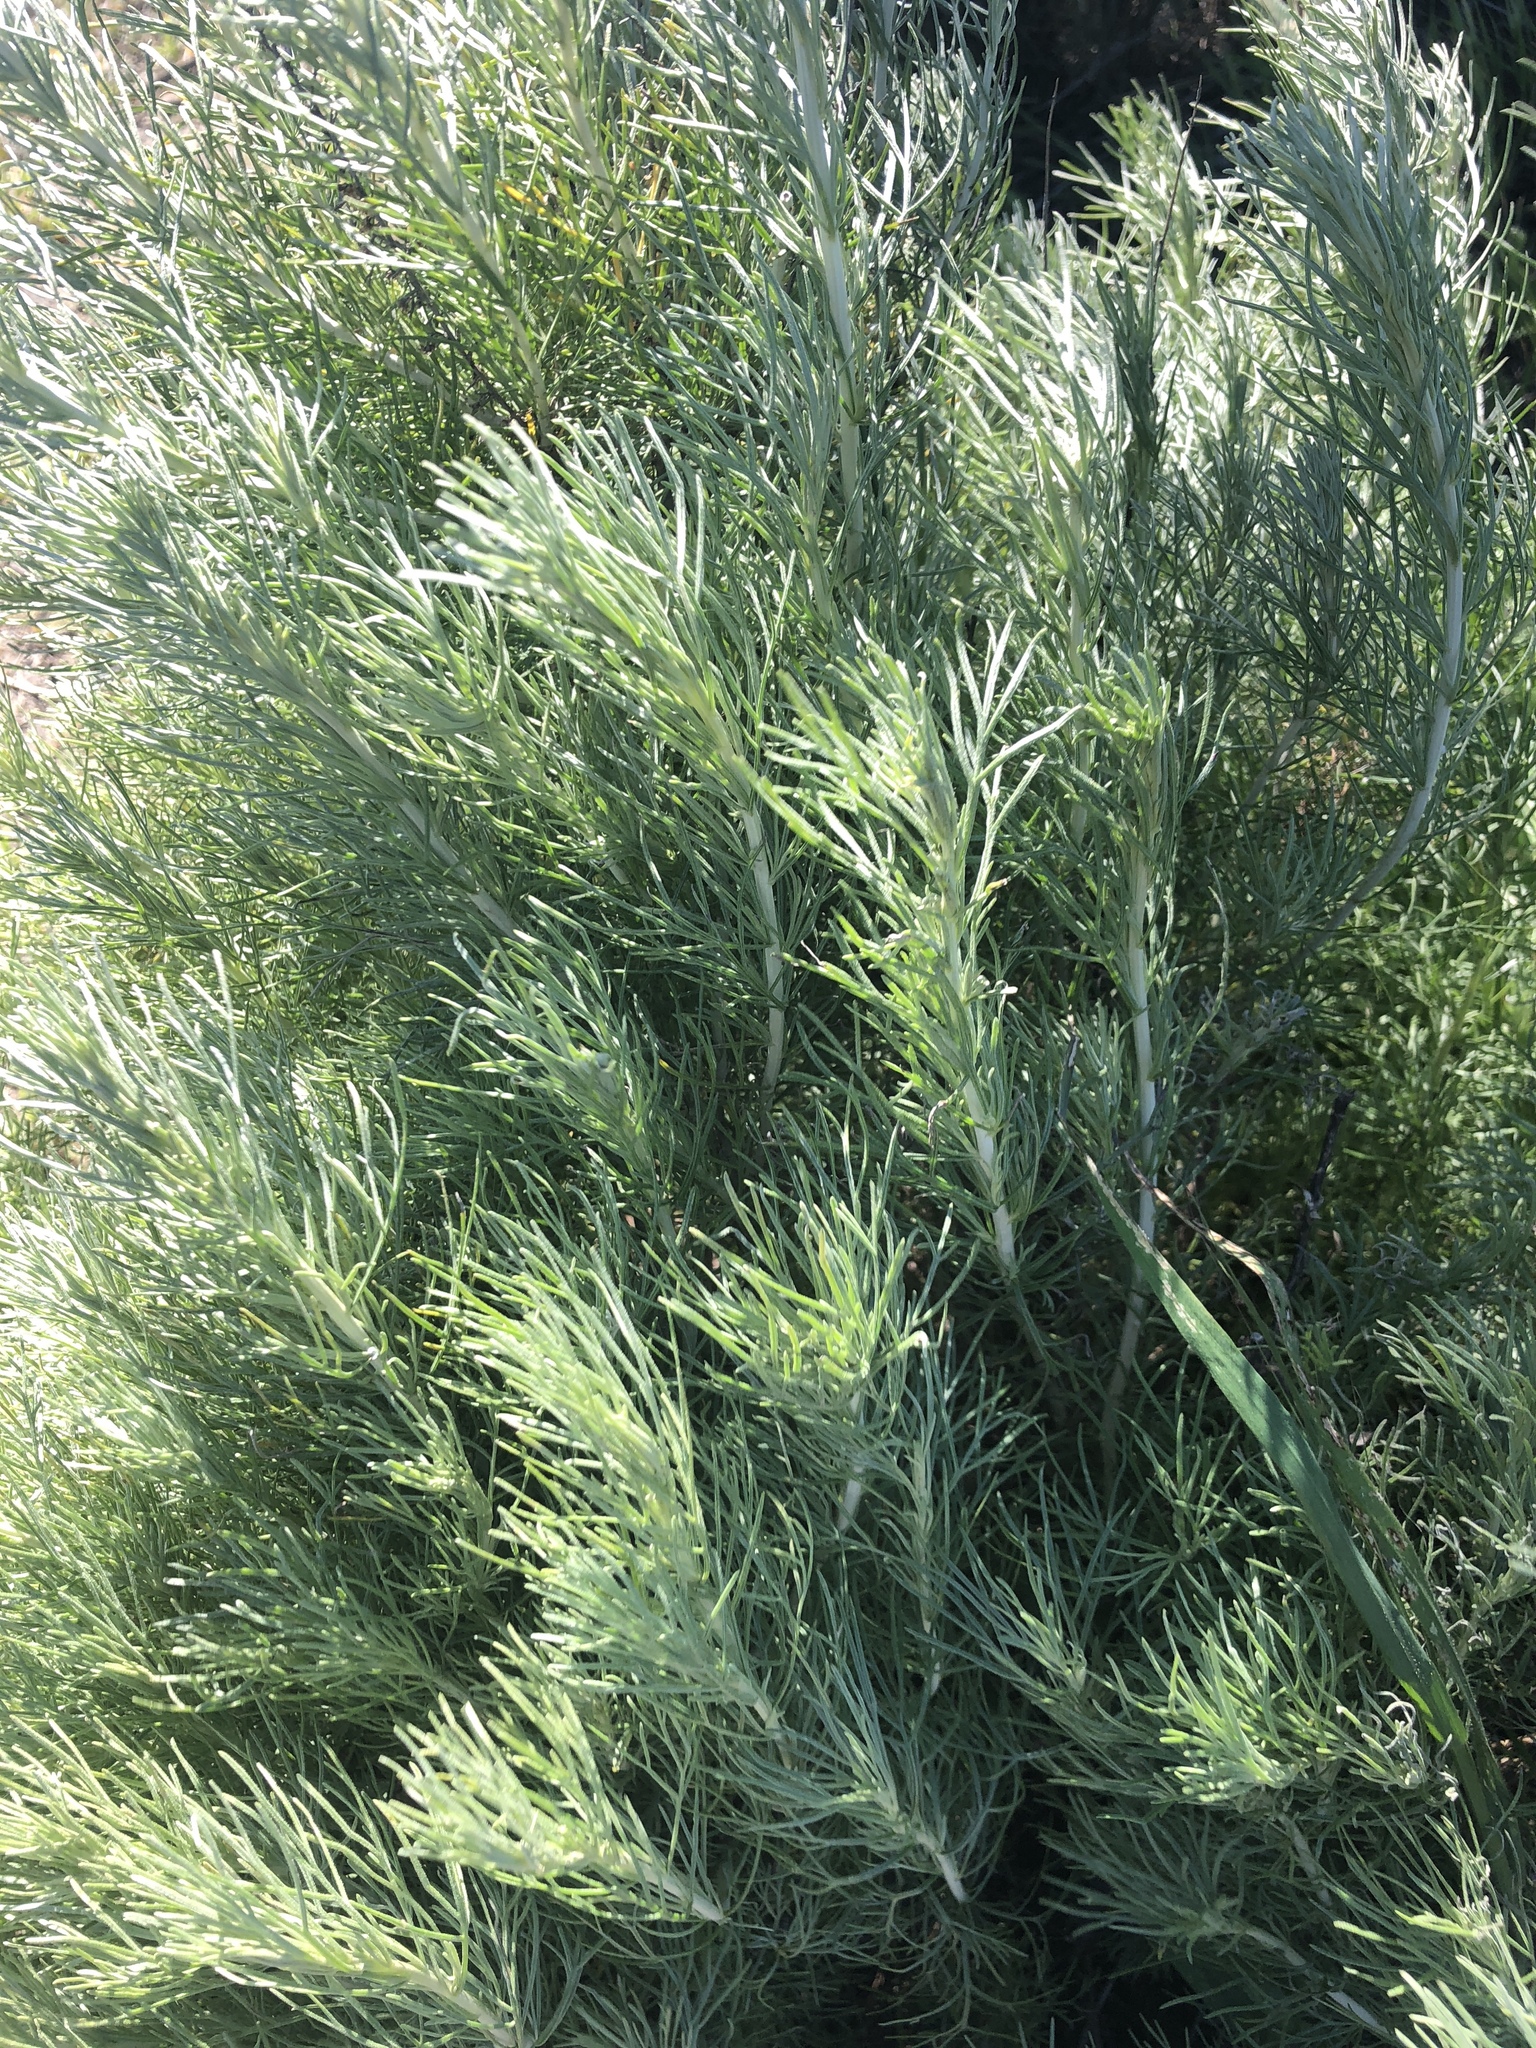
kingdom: Plantae
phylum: Tracheophyta
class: Magnoliopsida
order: Asterales
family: Asteraceae
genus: Artemisia
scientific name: Artemisia californica
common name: California sagebrush
